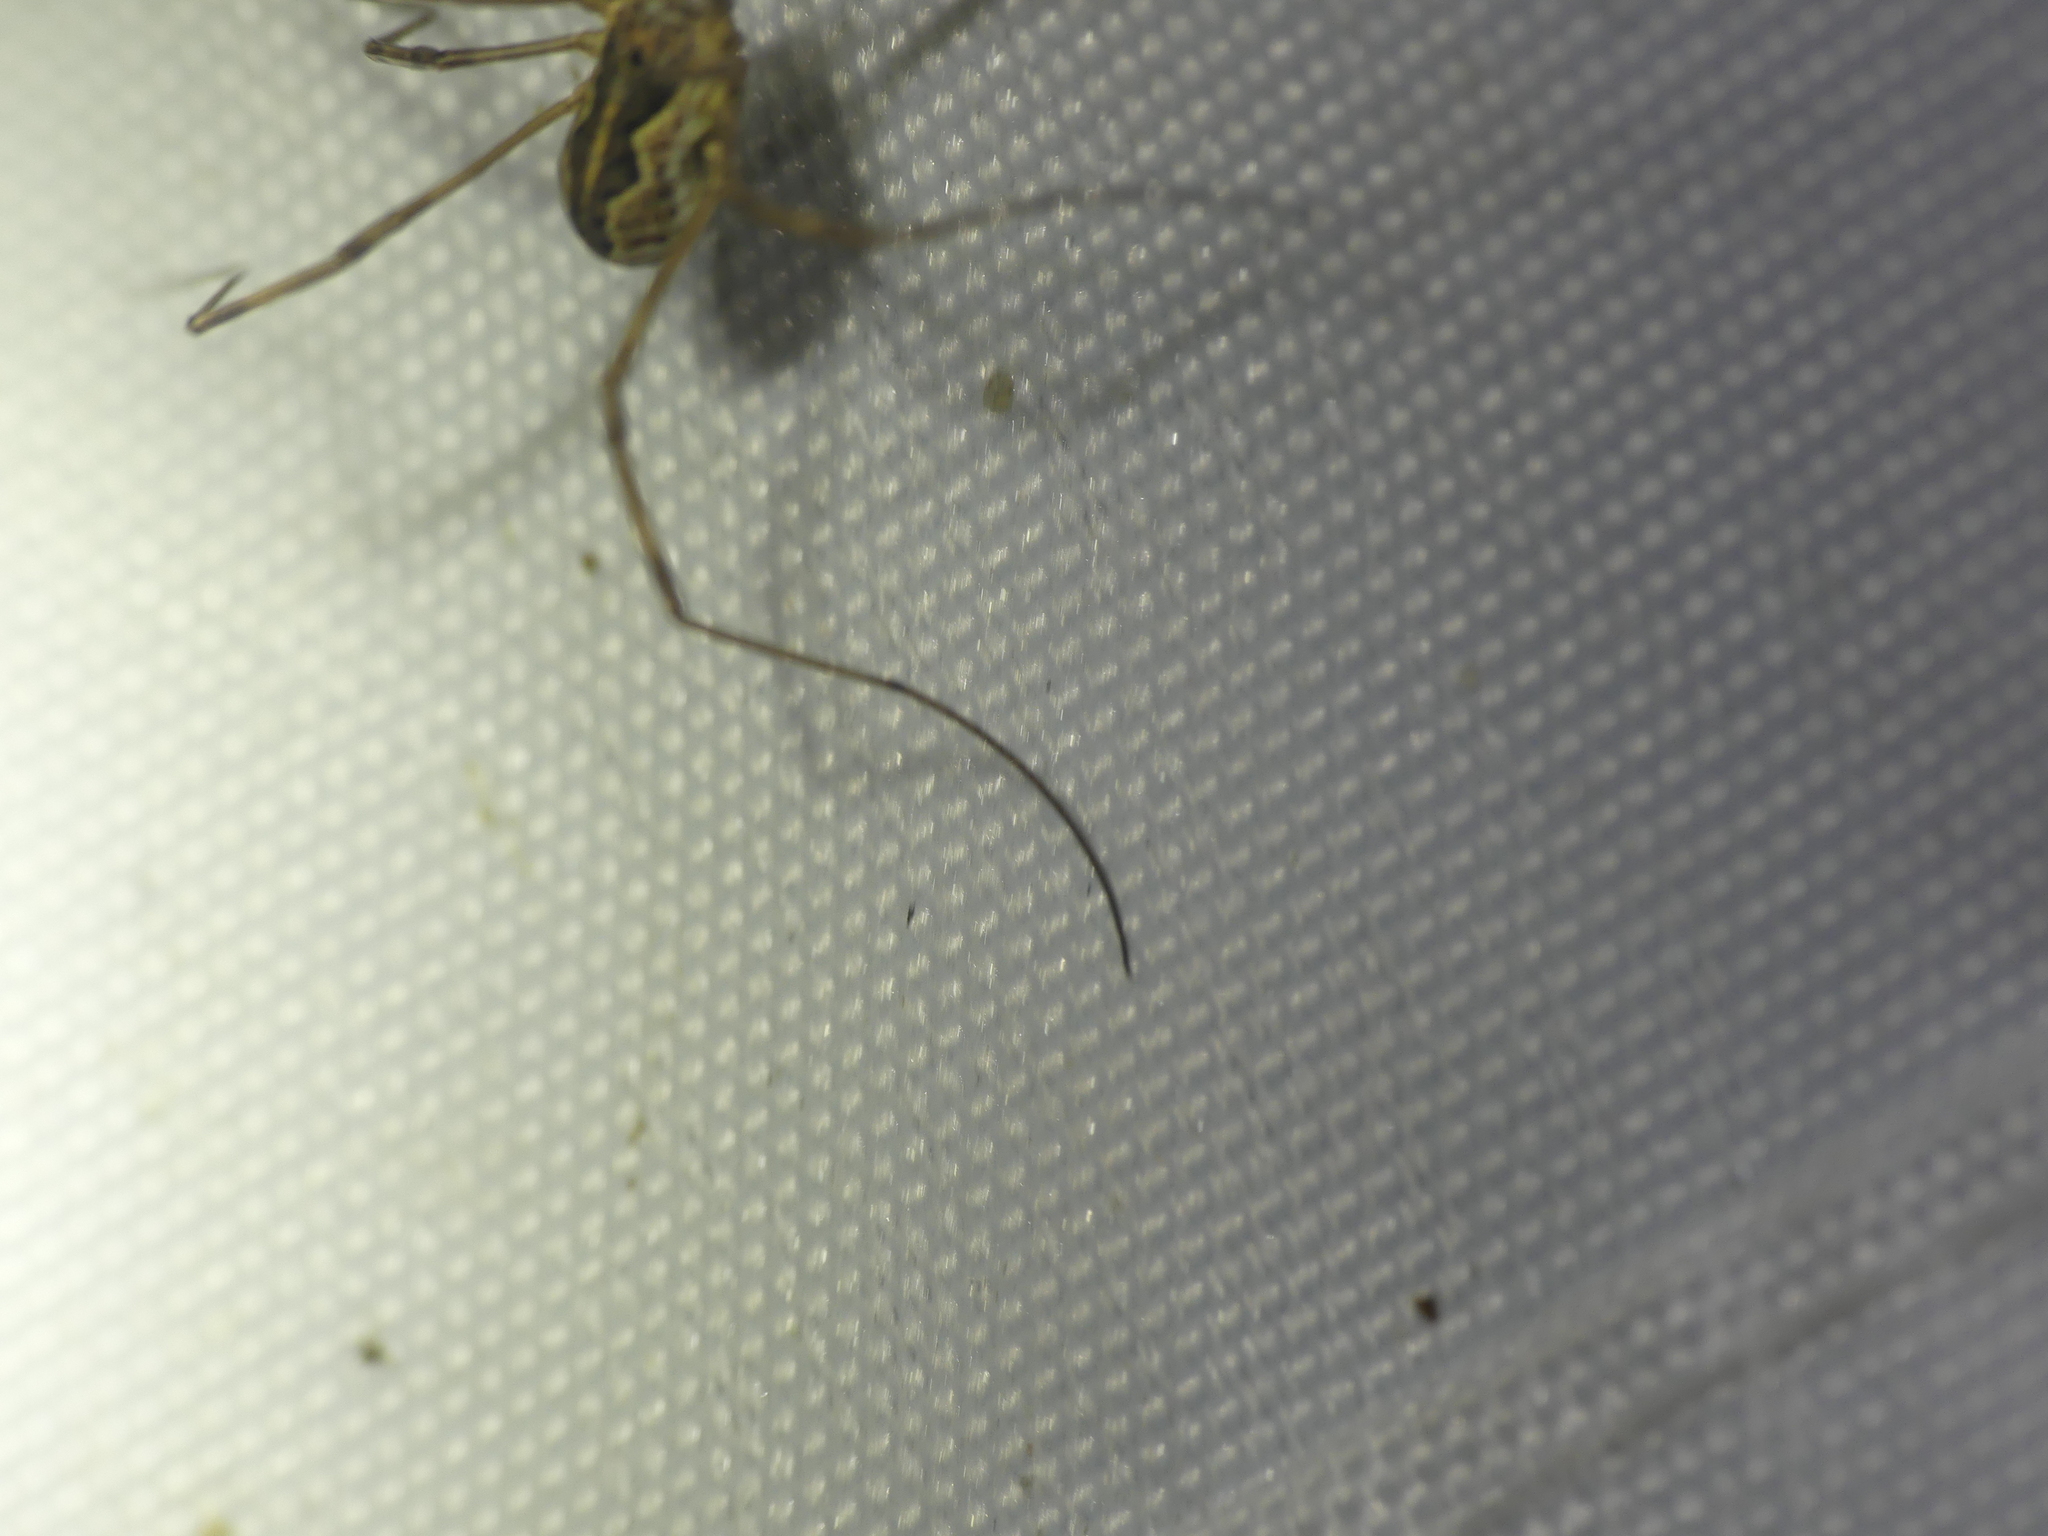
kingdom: Animalia
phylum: Arthropoda
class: Arachnida
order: Opiliones
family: Phalangiidae
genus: Mitopus
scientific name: Mitopus morio
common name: Saddleback harvestman
